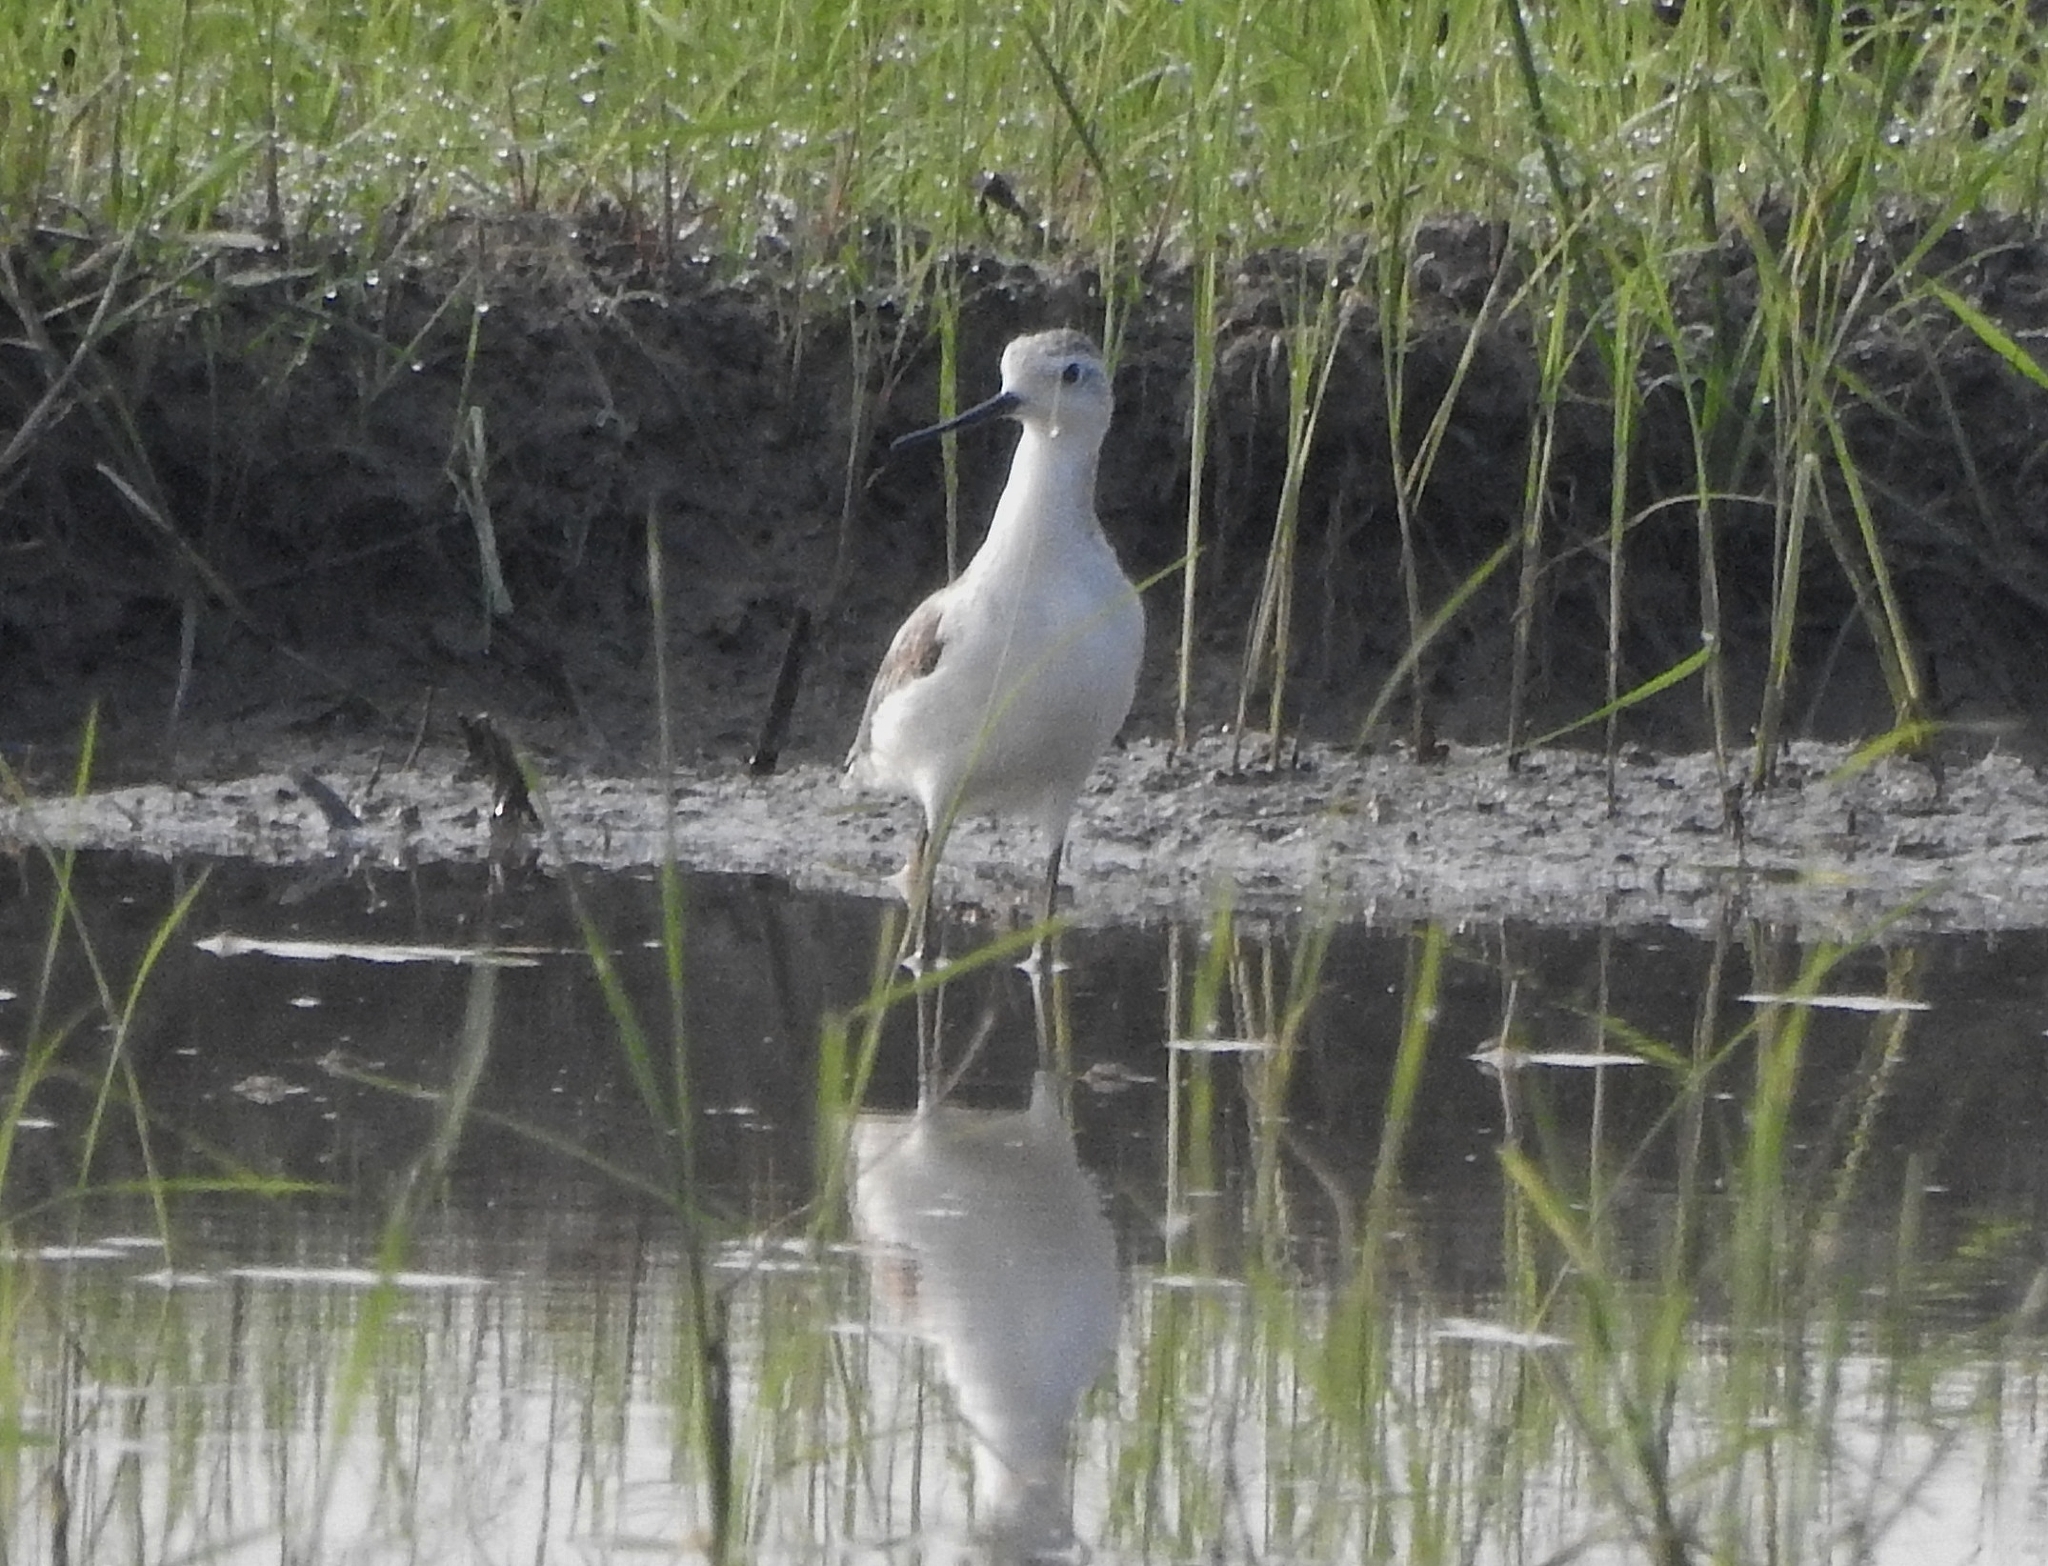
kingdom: Animalia
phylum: Chordata
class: Aves
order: Charadriiformes
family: Scolopacidae
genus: Tringa
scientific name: Tringa stagnatilis
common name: Marsh sandpiper
